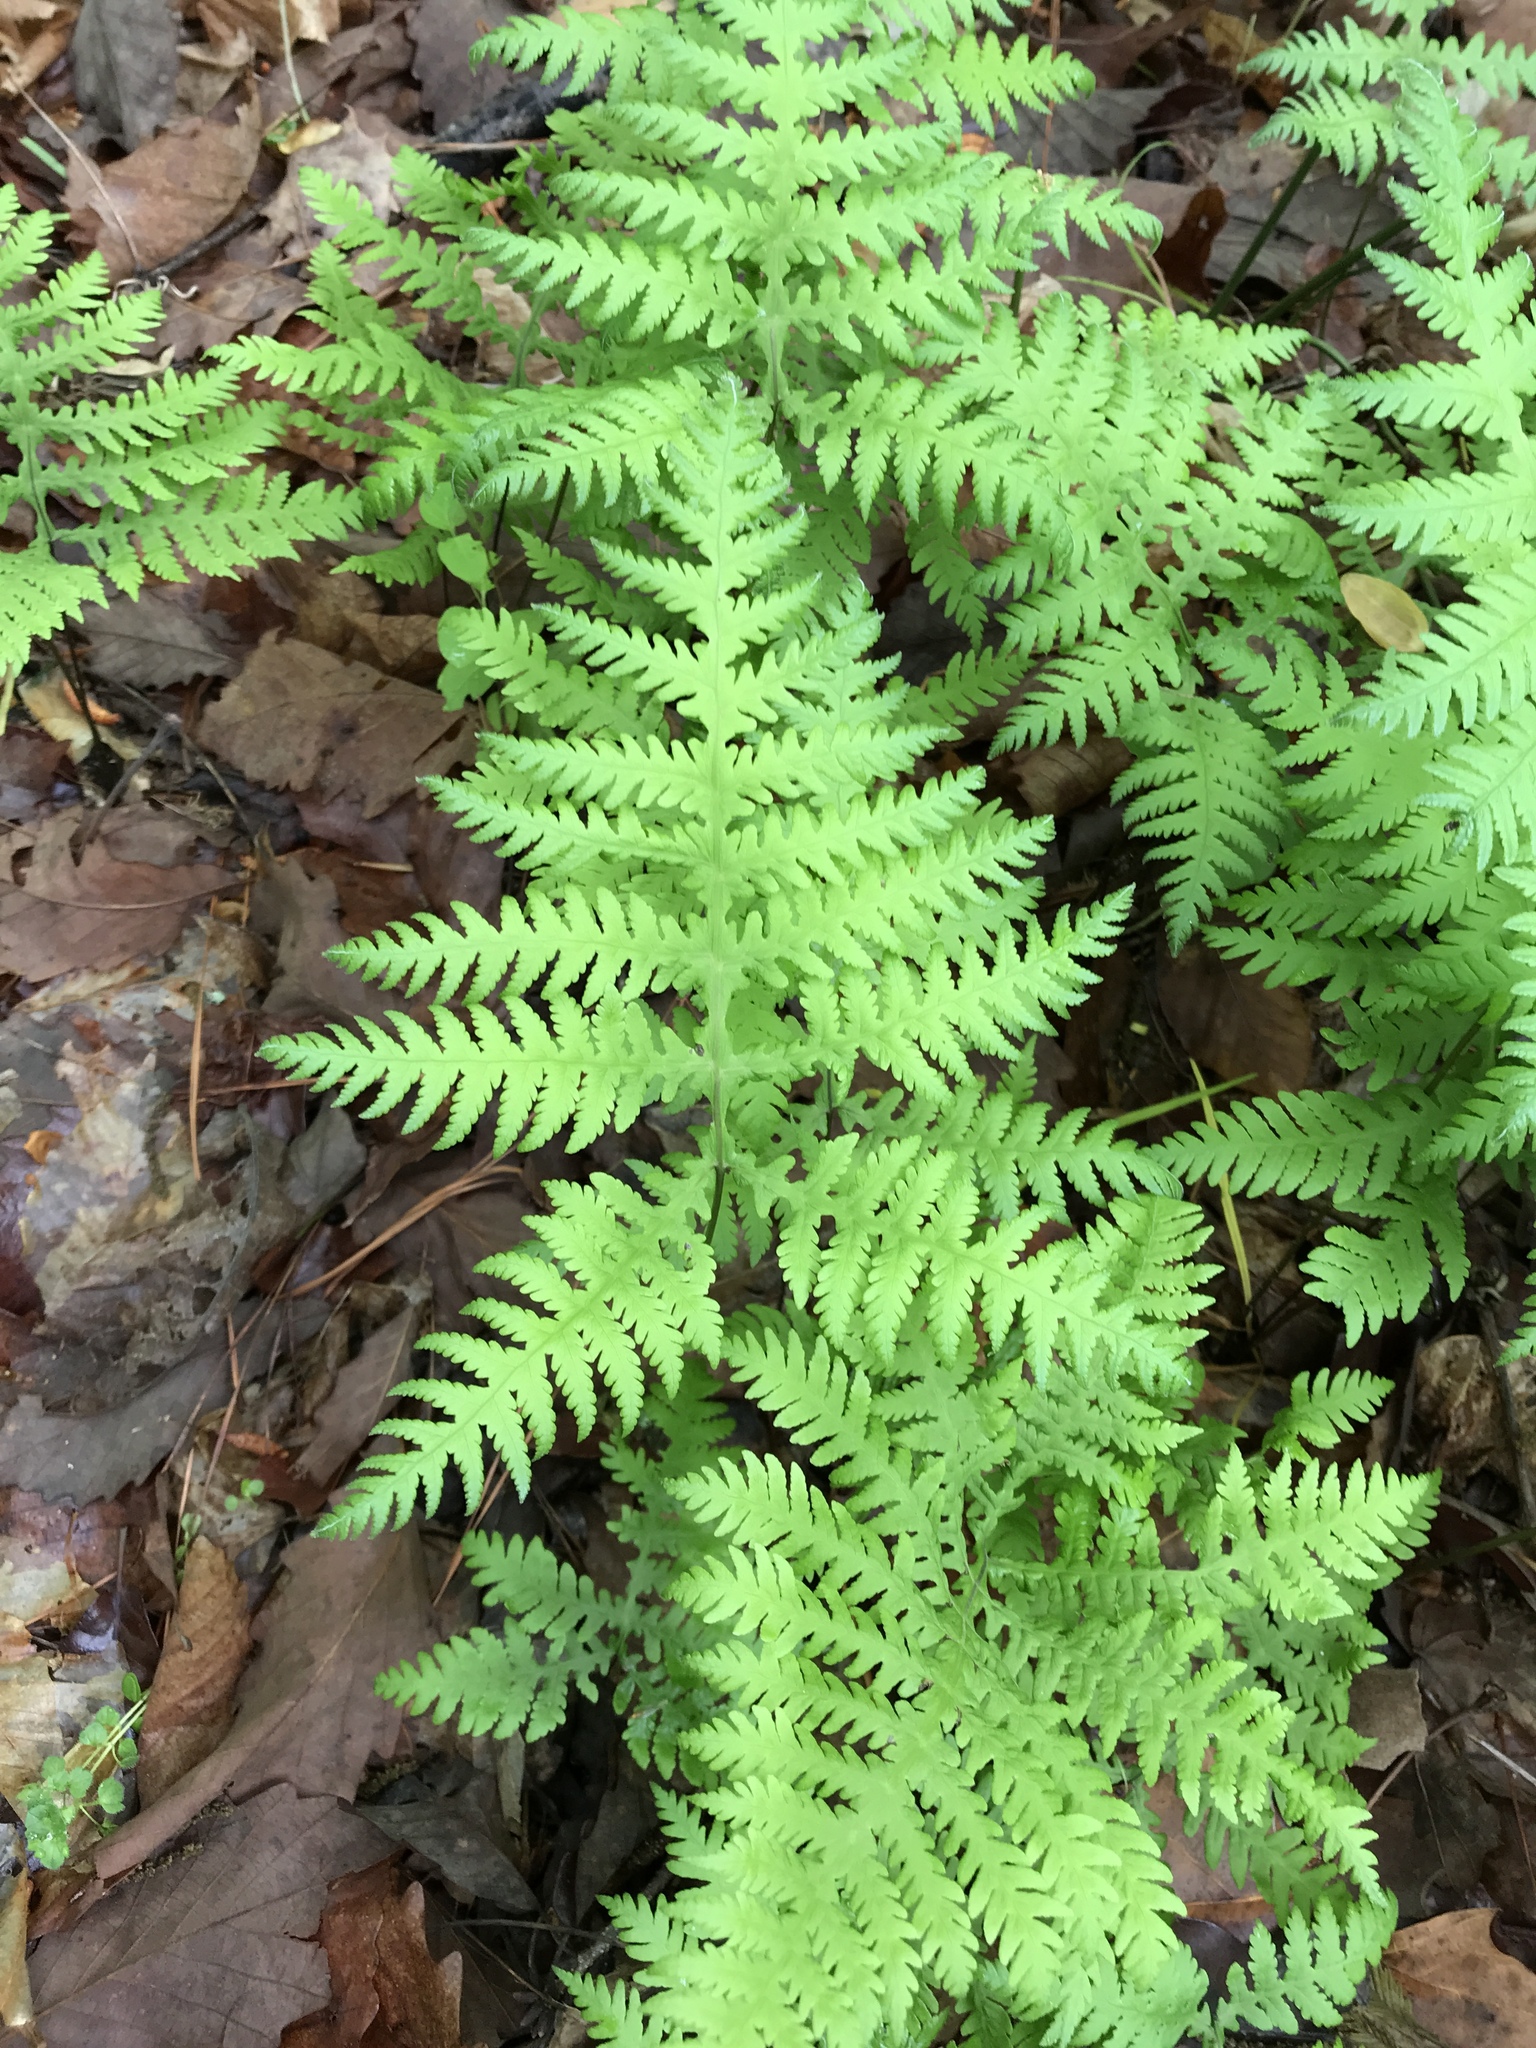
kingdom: Plantae
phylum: Tracheophyta
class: Polypodiopsida
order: Polypodiales
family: Thelypteridaceae
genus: Phegopteris
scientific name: Phegopteris hexagonoptera
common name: Broad beech fern
